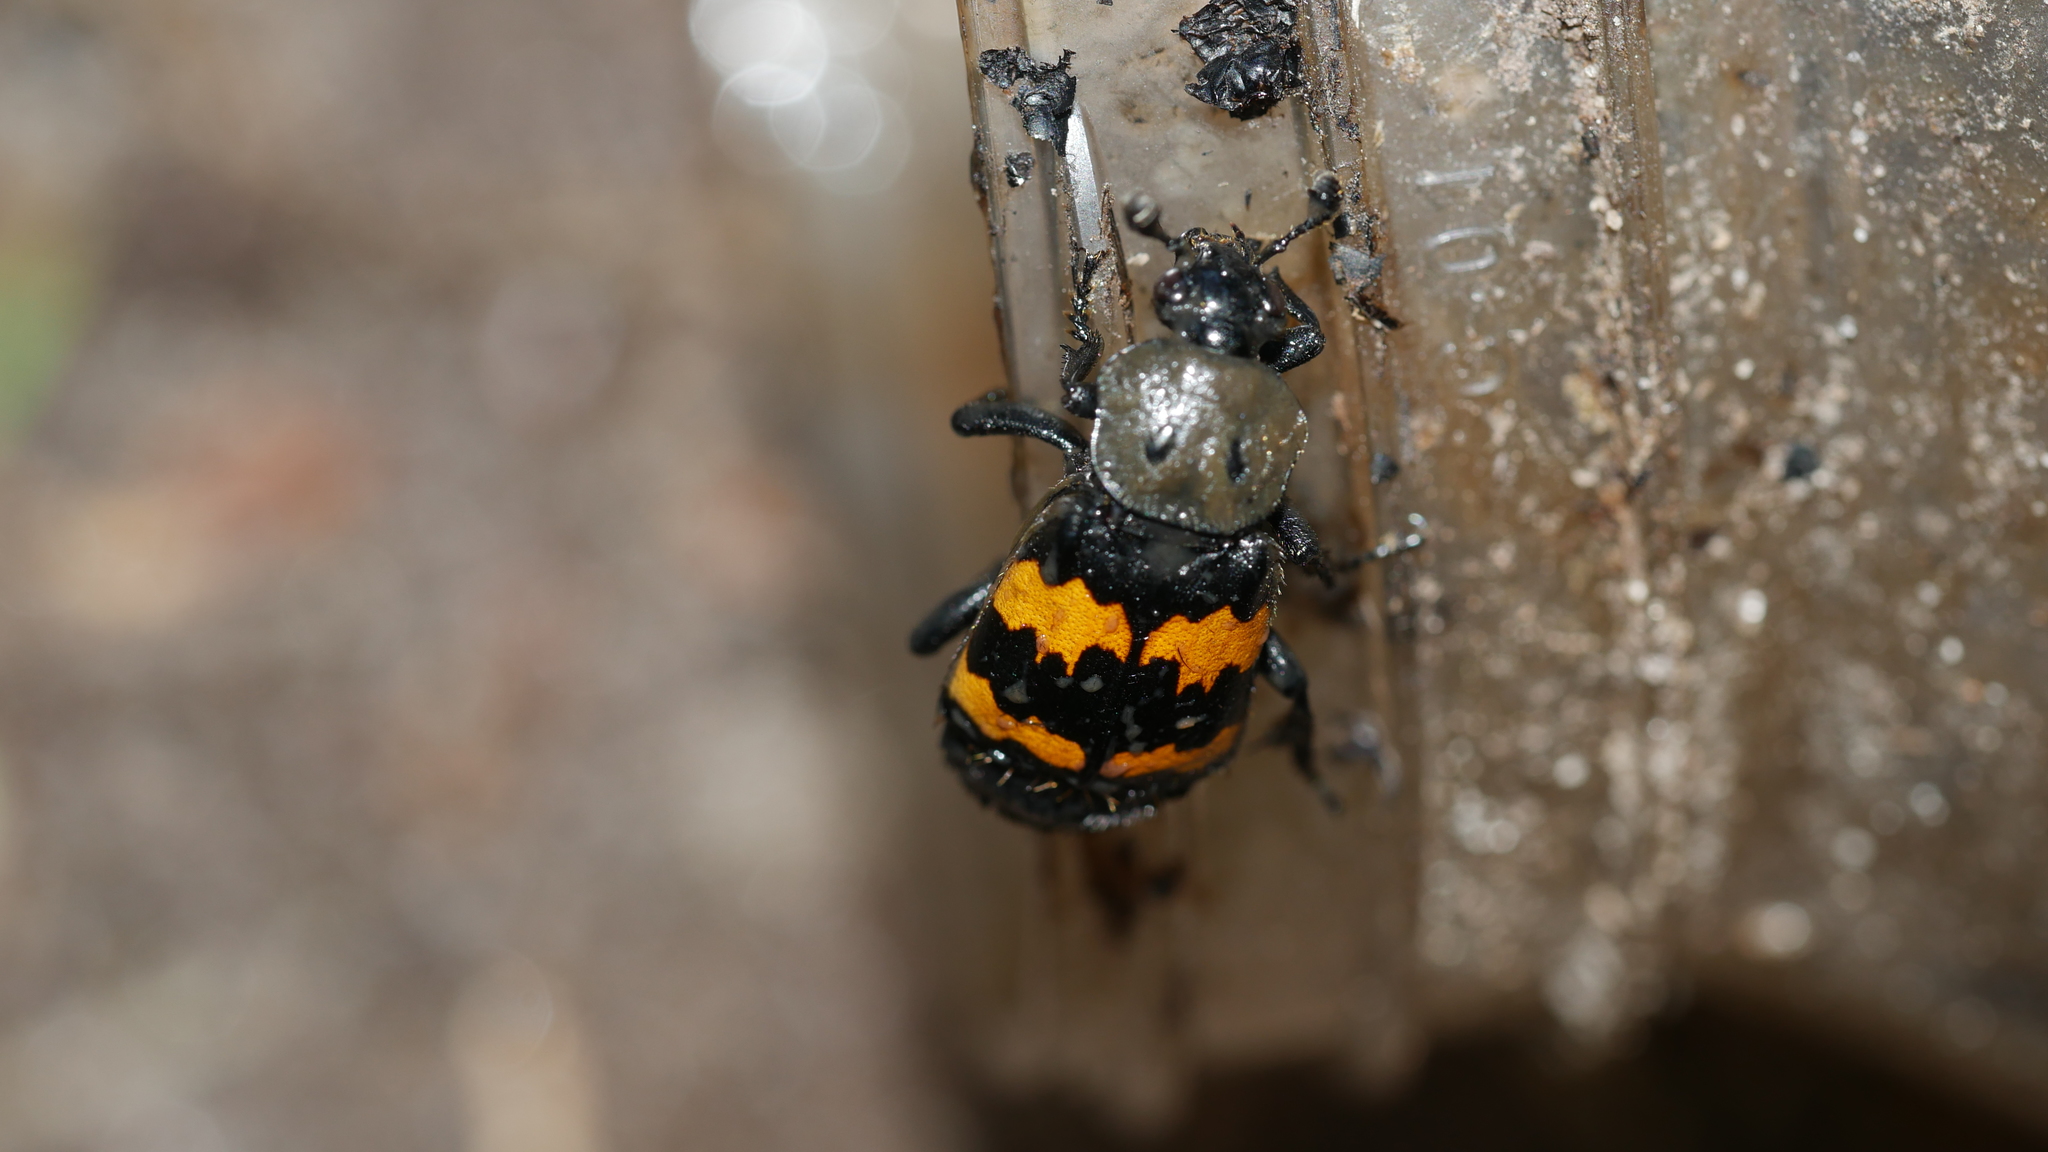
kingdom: Animalia
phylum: Arthropoda
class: Insecta
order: Coleoptera
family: Staphylinidae
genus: Nicrophorus
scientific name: Nicrophorus tomentosus
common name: Tomentose burying beetle
